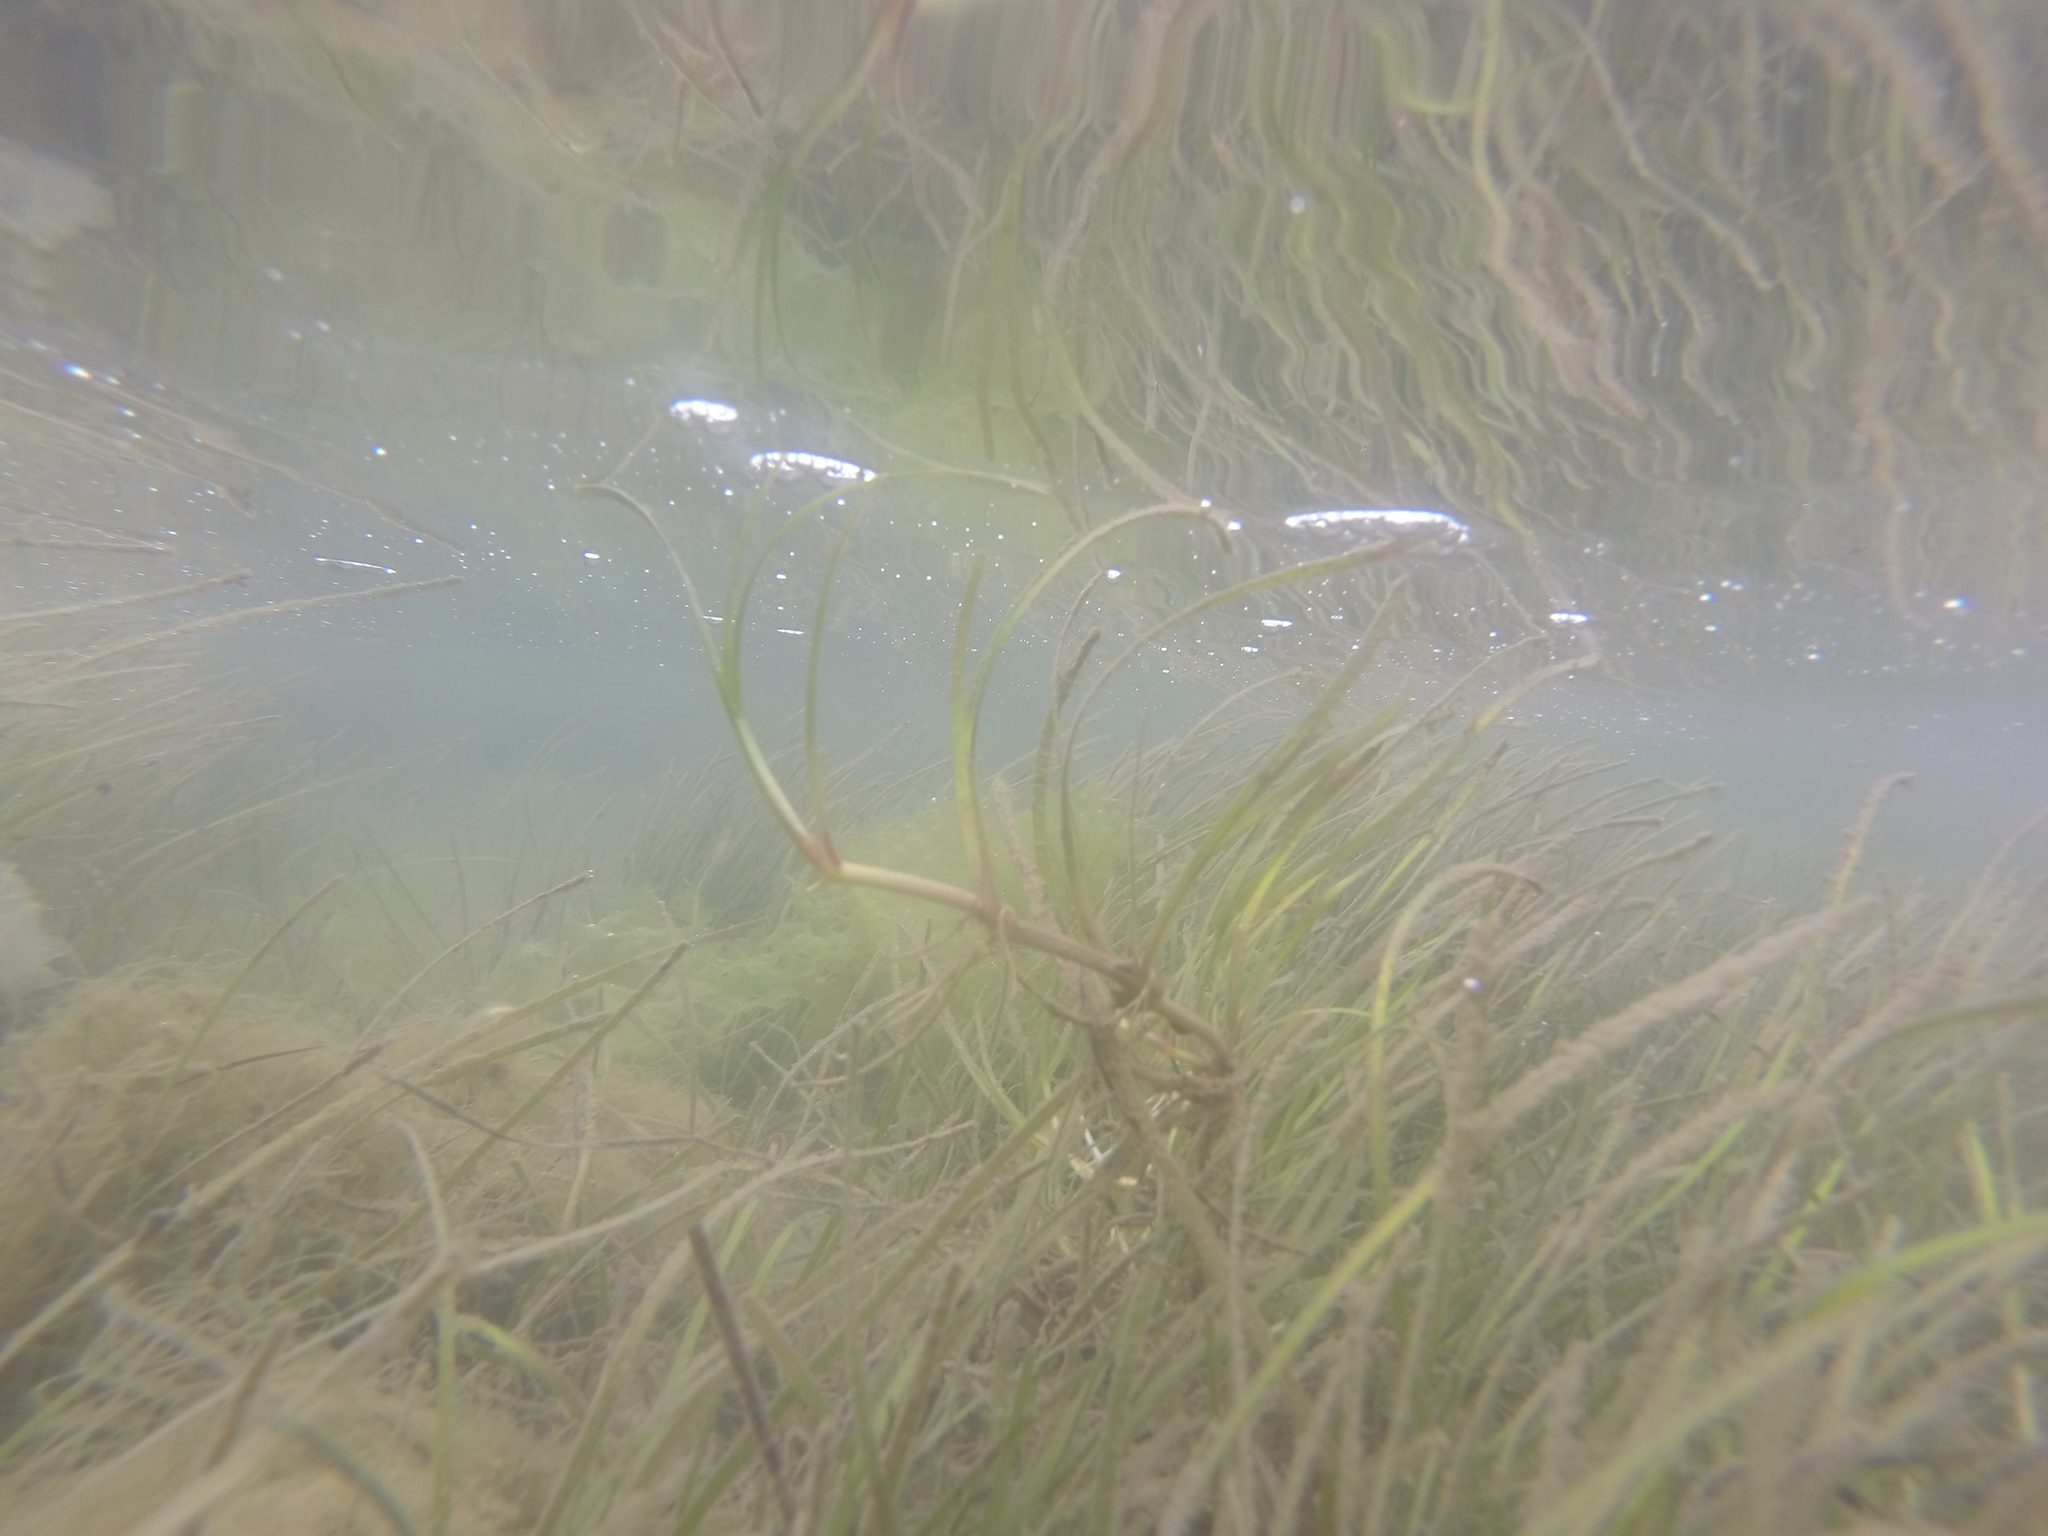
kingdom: Plantae
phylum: Tracheophyta
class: Liliopsida
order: Alismatales
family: Zosteraceae
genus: Zostera
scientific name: Zostera noltii
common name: Dwarf eelgrass
